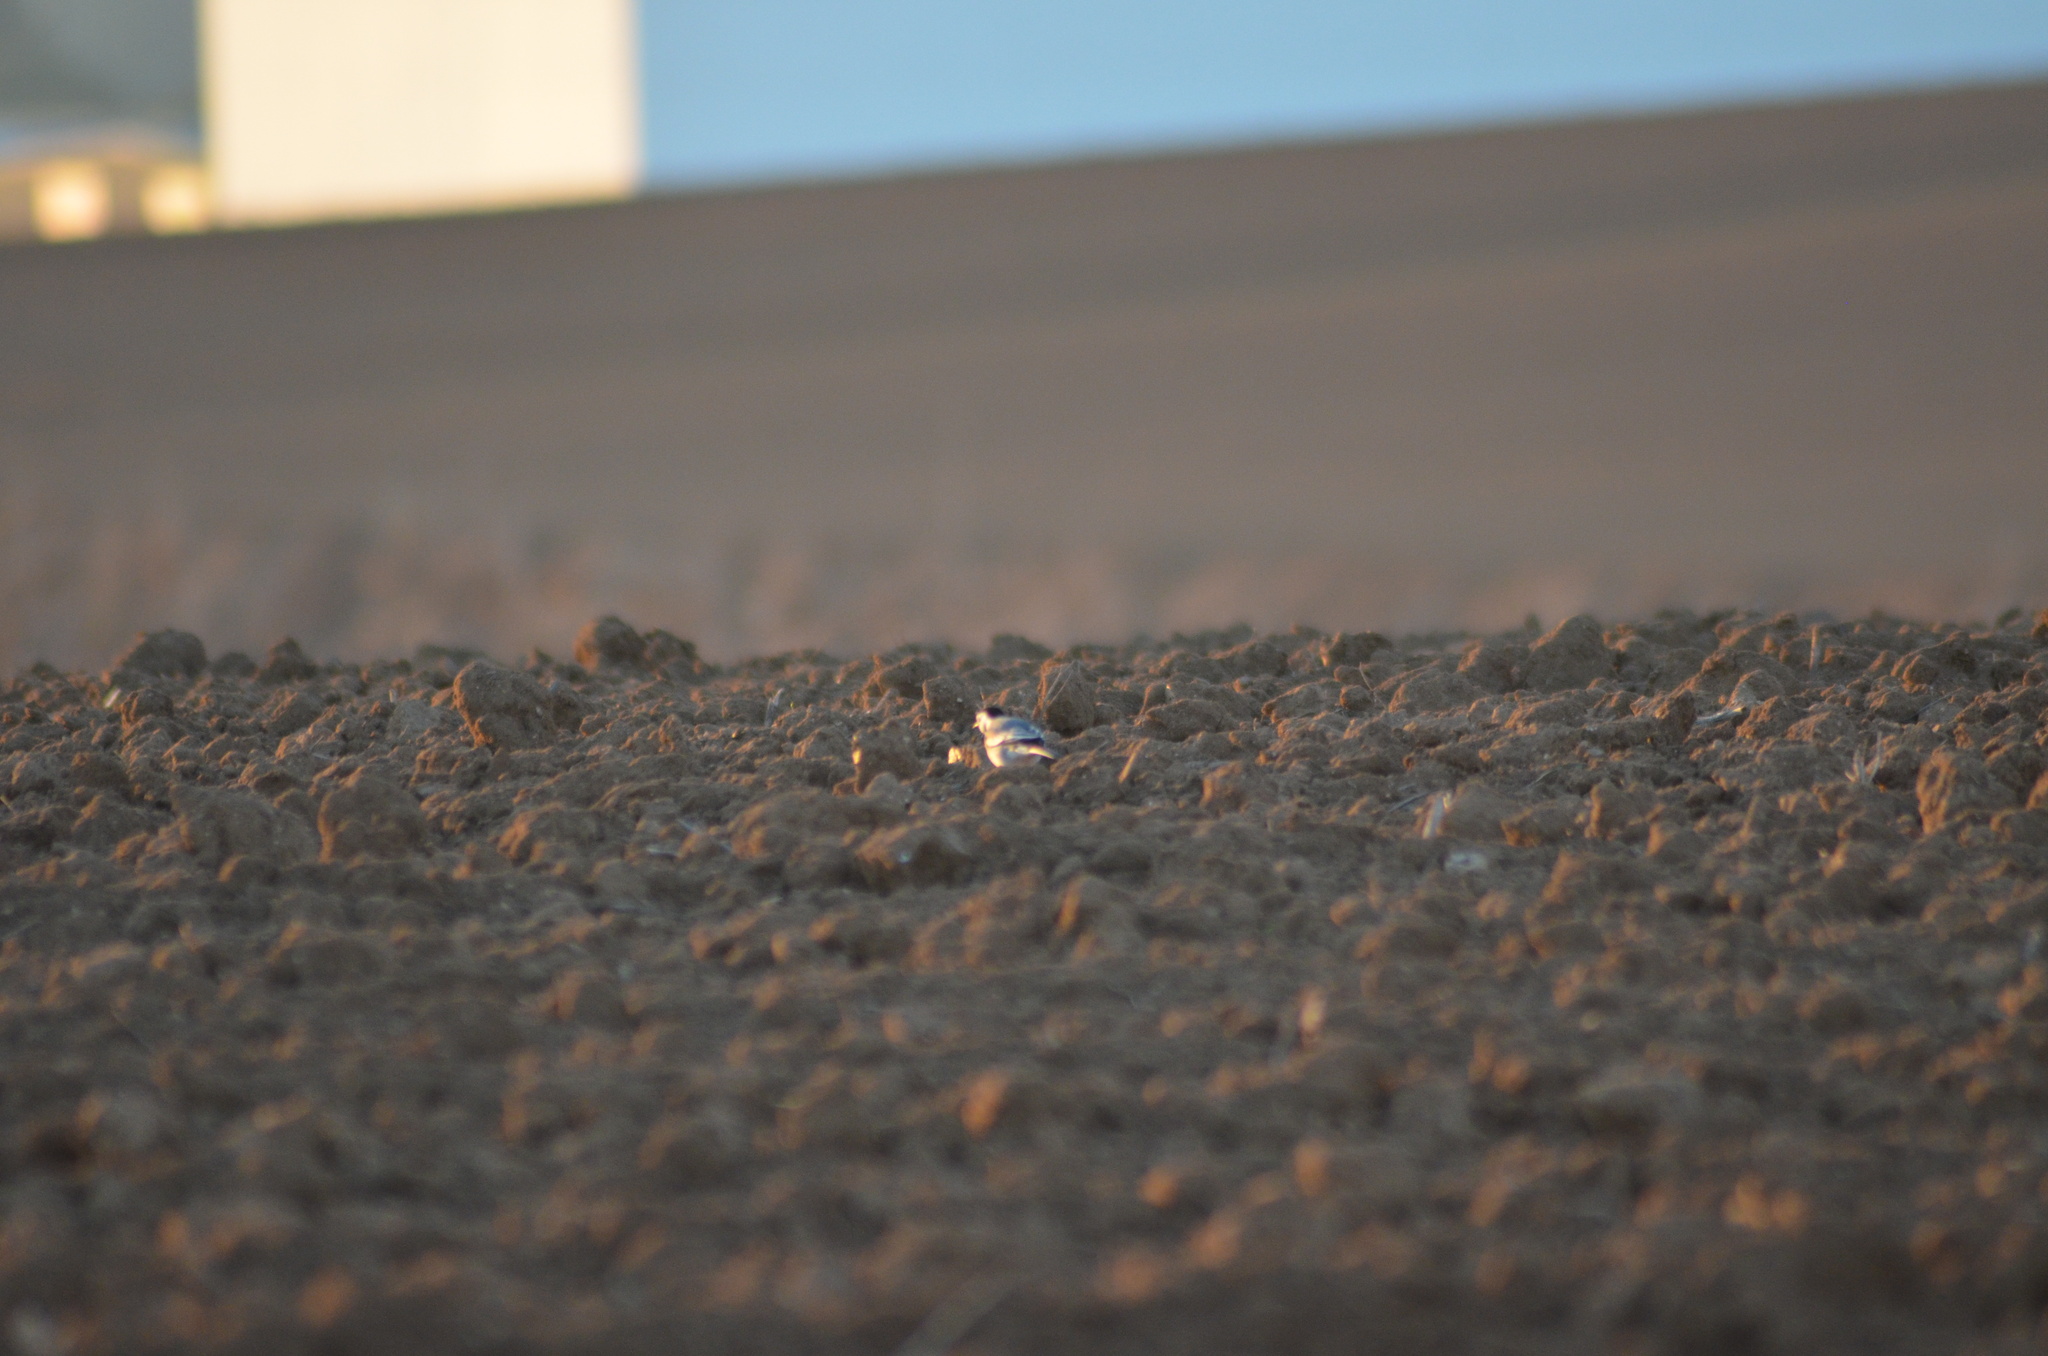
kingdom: Animalia
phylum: Chordata
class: Aves
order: Passeriformes
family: Motacillidae
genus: Motacilla
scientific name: Motacilla alba
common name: White wagtail
